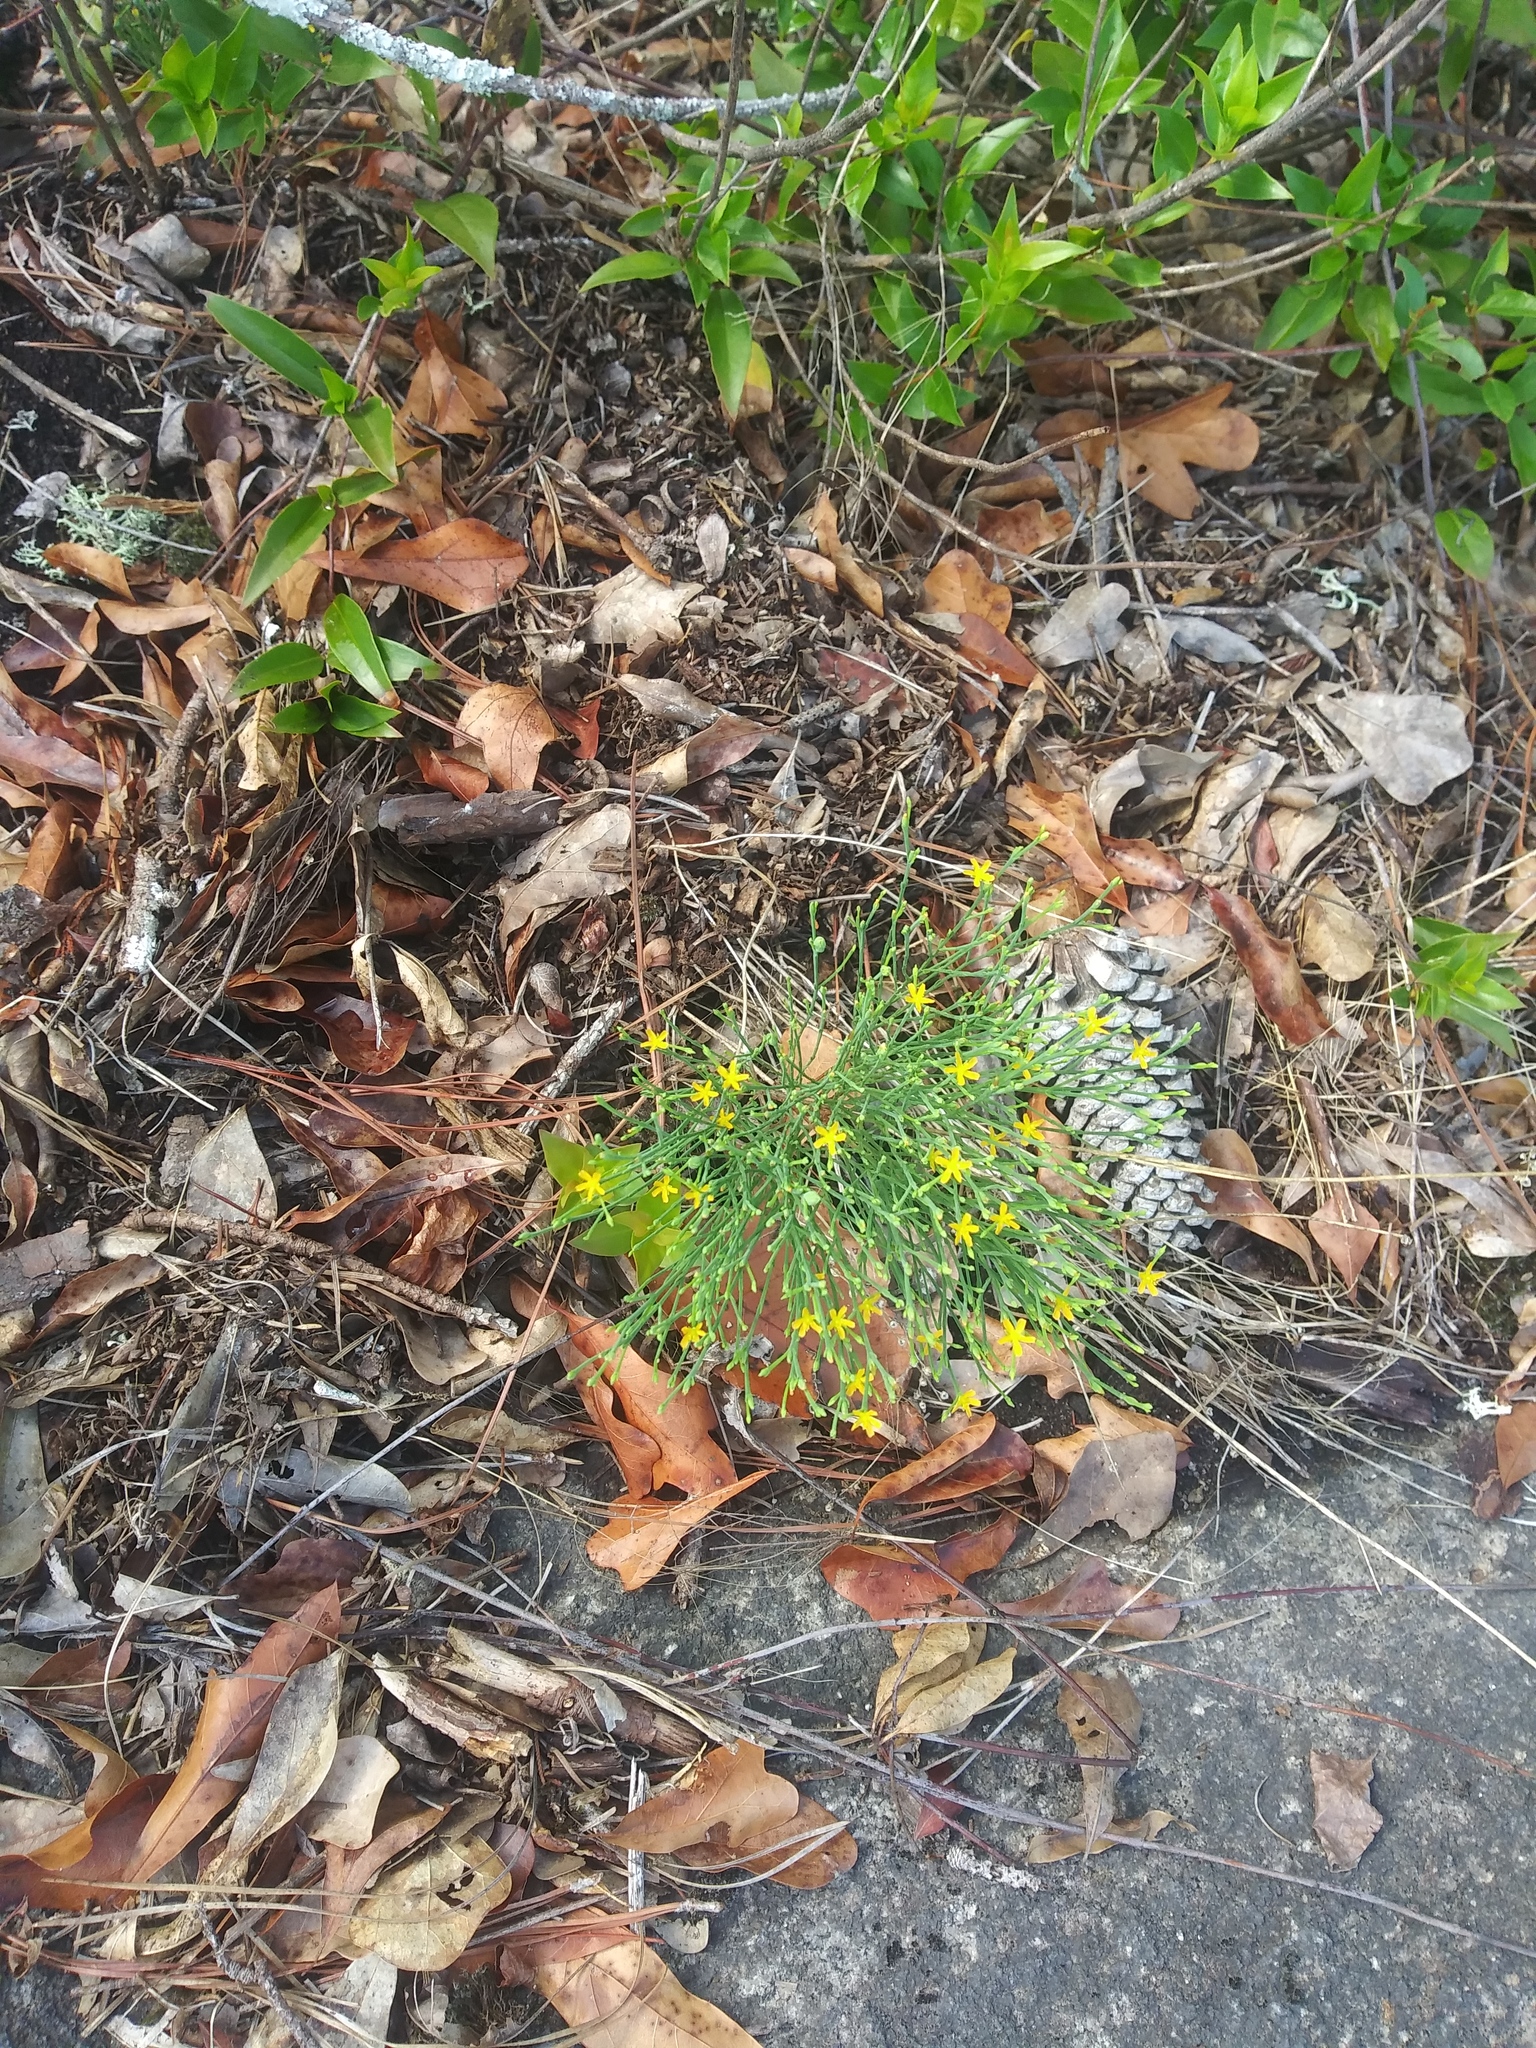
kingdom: Plantae
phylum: Tracheophyta
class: Magnoliopsida
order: Malpighiales
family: Hypericaceae
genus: Hypericum
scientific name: Hypericum gentianoides
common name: Gentian-leaved st. john's-wort
